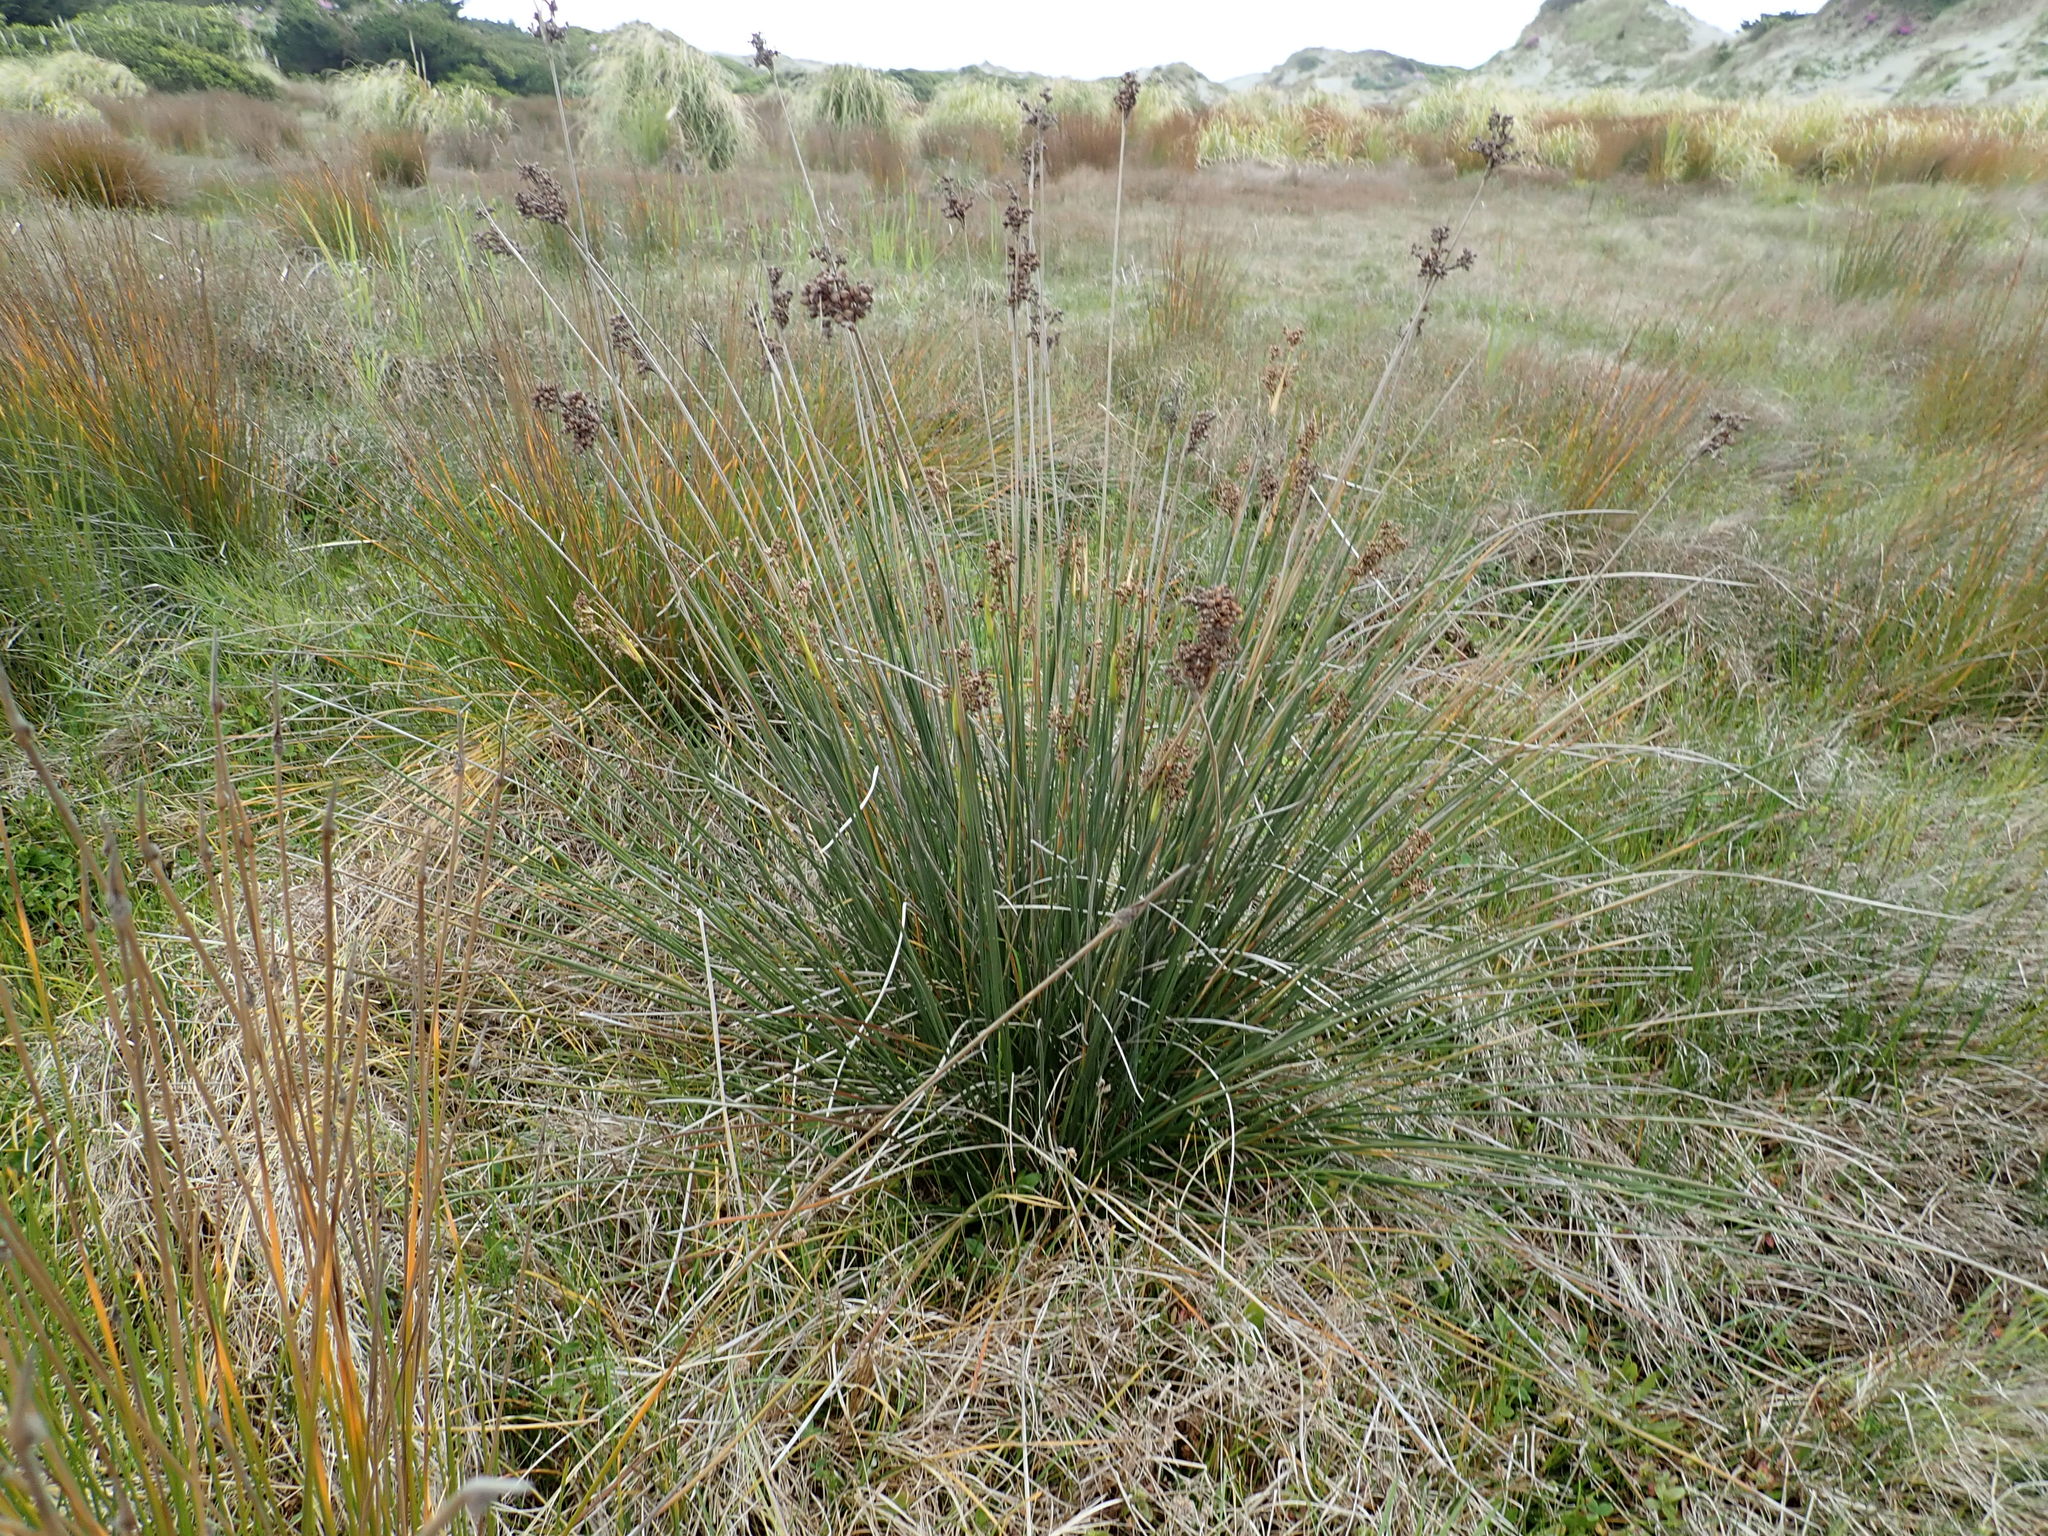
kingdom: Plantae
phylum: Tracheophyta
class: Liliopsida
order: Poales
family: Juncaceae
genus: Juncus
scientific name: Juncus acutus
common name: Sharp rush
